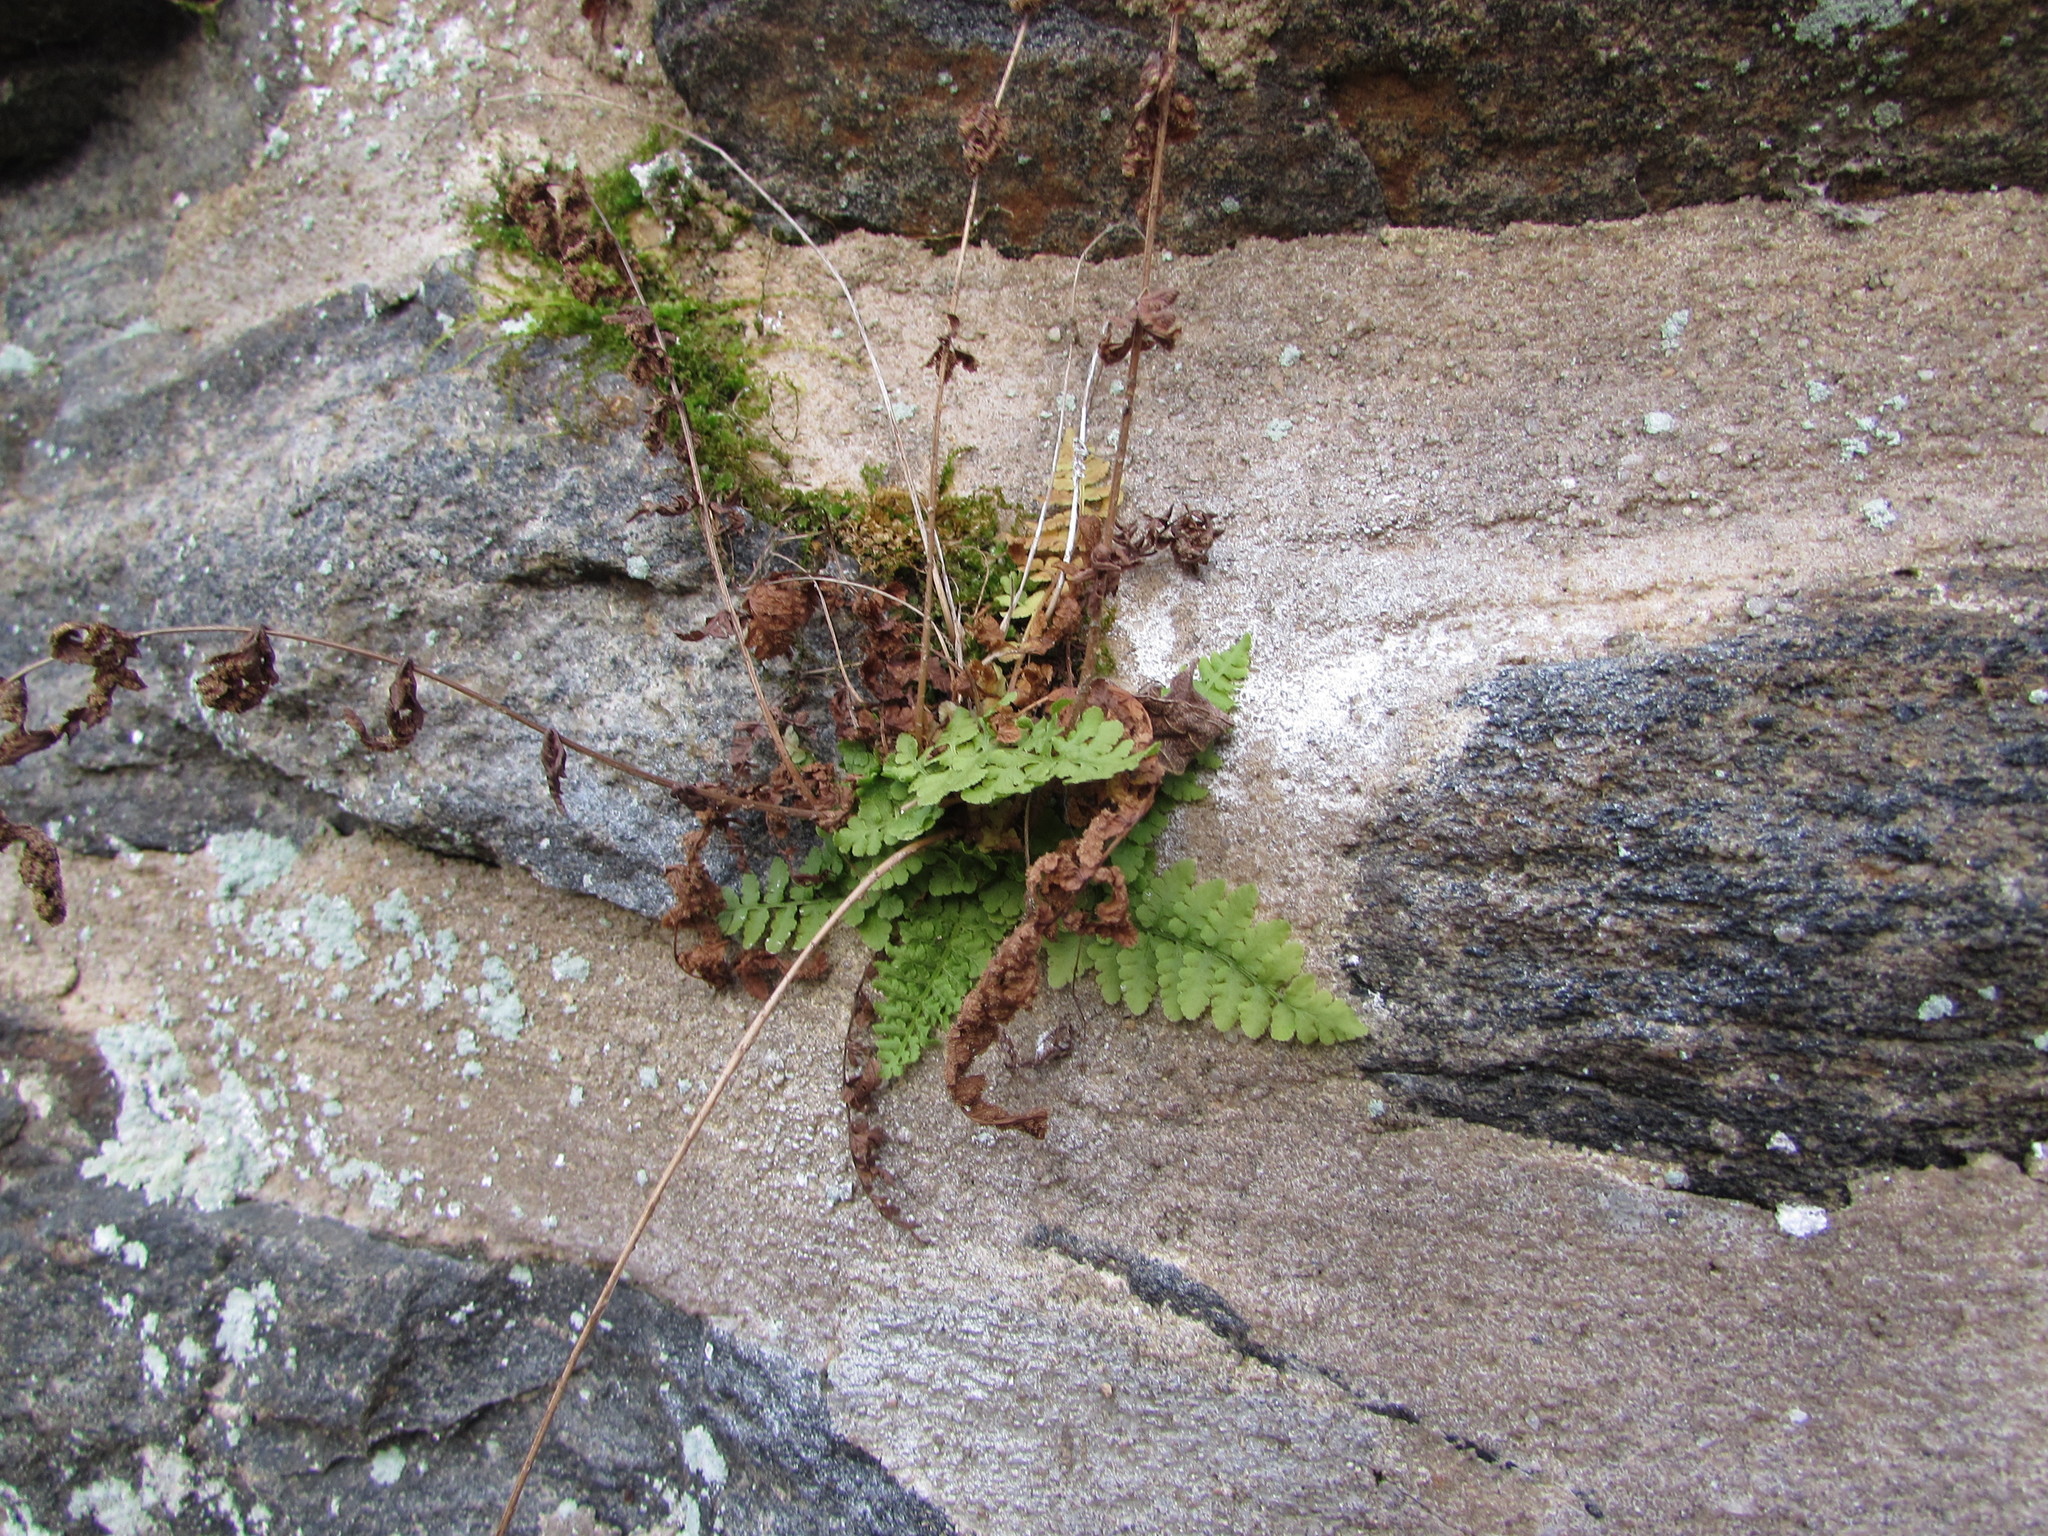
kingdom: Plantae
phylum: Tracheophyta
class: Polypodiopsida
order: Polypodiales
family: Woodsiaceae
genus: Physematium
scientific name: Physematium obtusum
